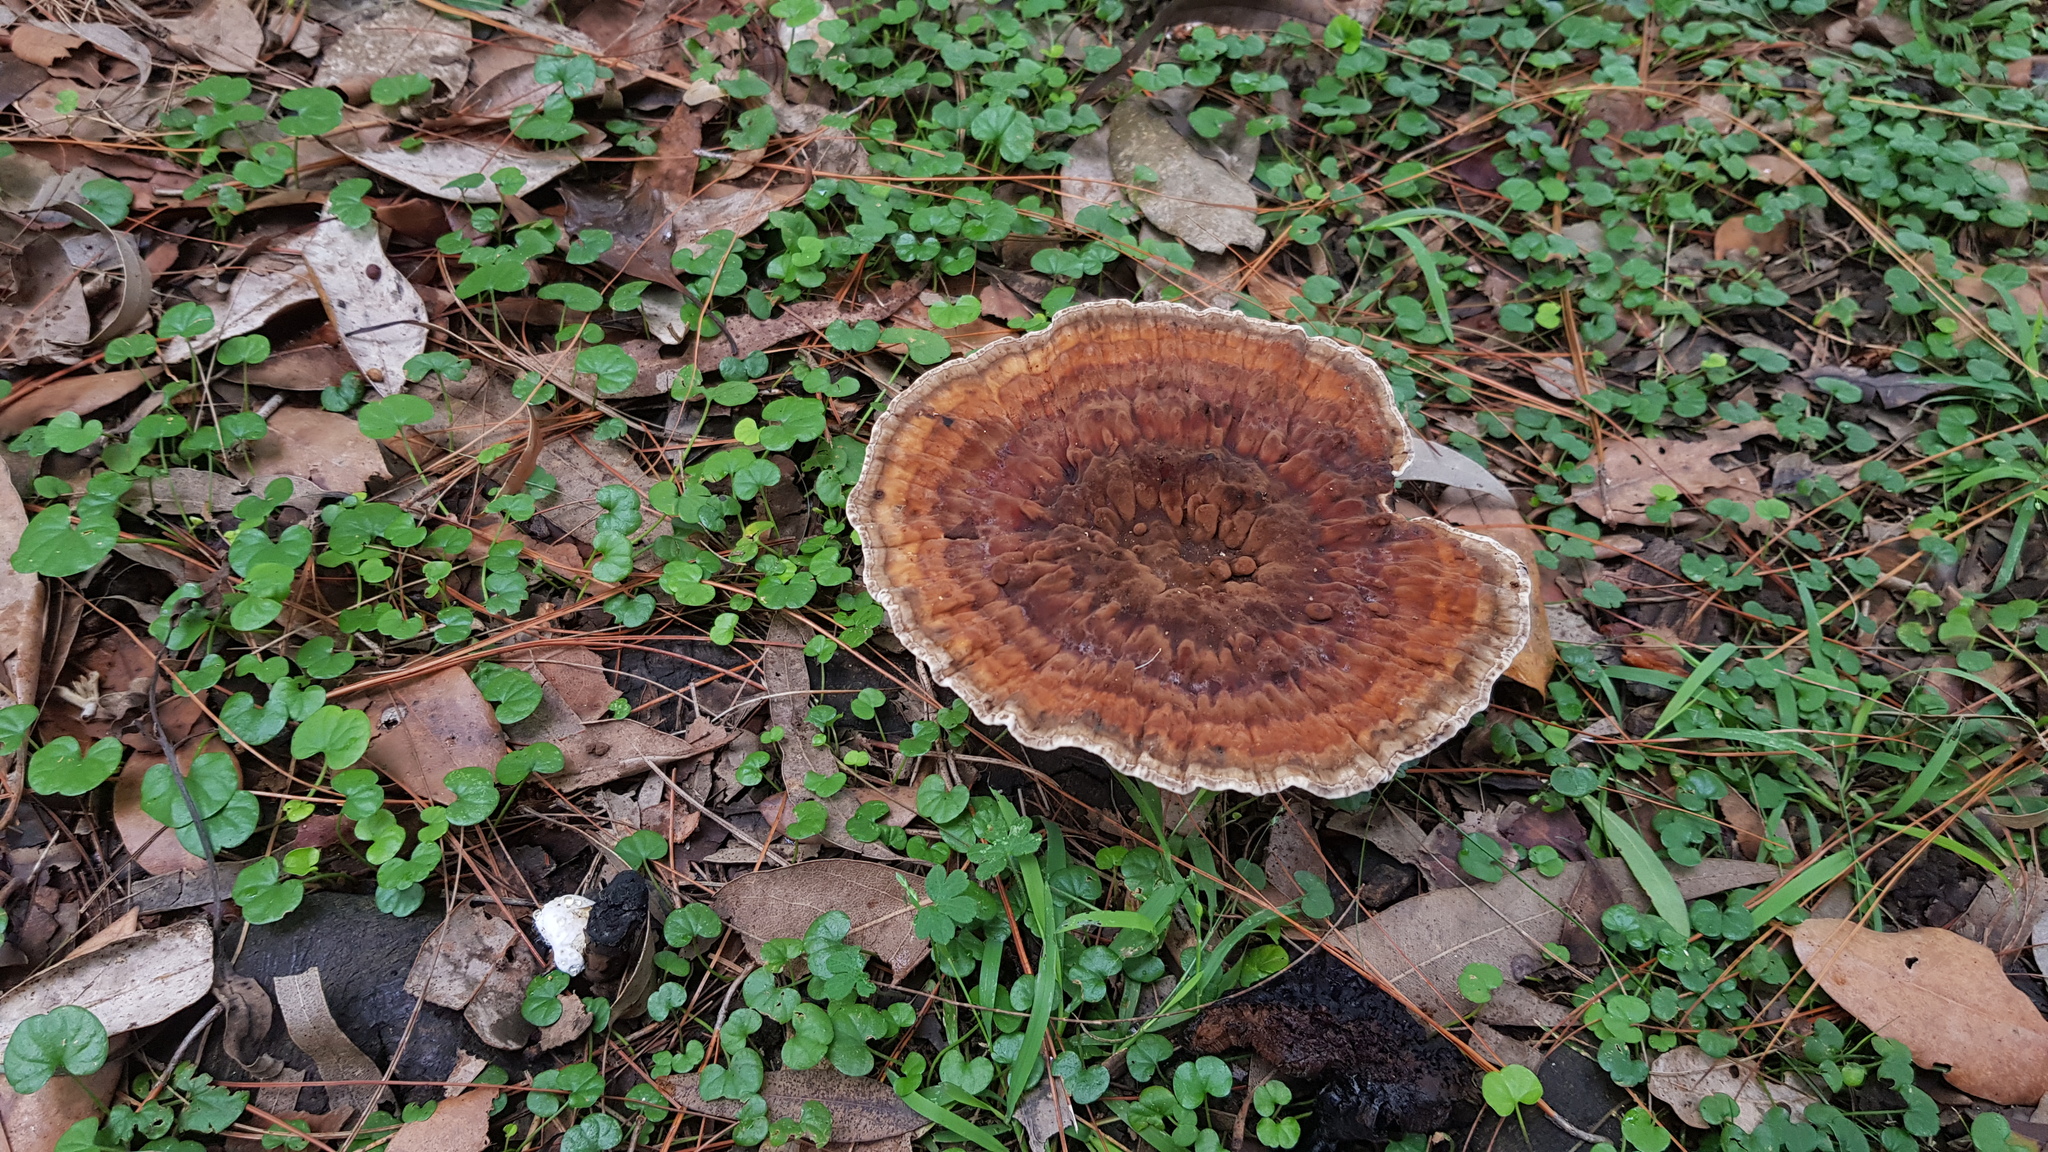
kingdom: Fungi
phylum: Basidiomycota
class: Agaricomycetes
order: Polyporales
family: Ganodermataceae
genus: Sanguinoderma
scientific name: Sanguinoderma rude
